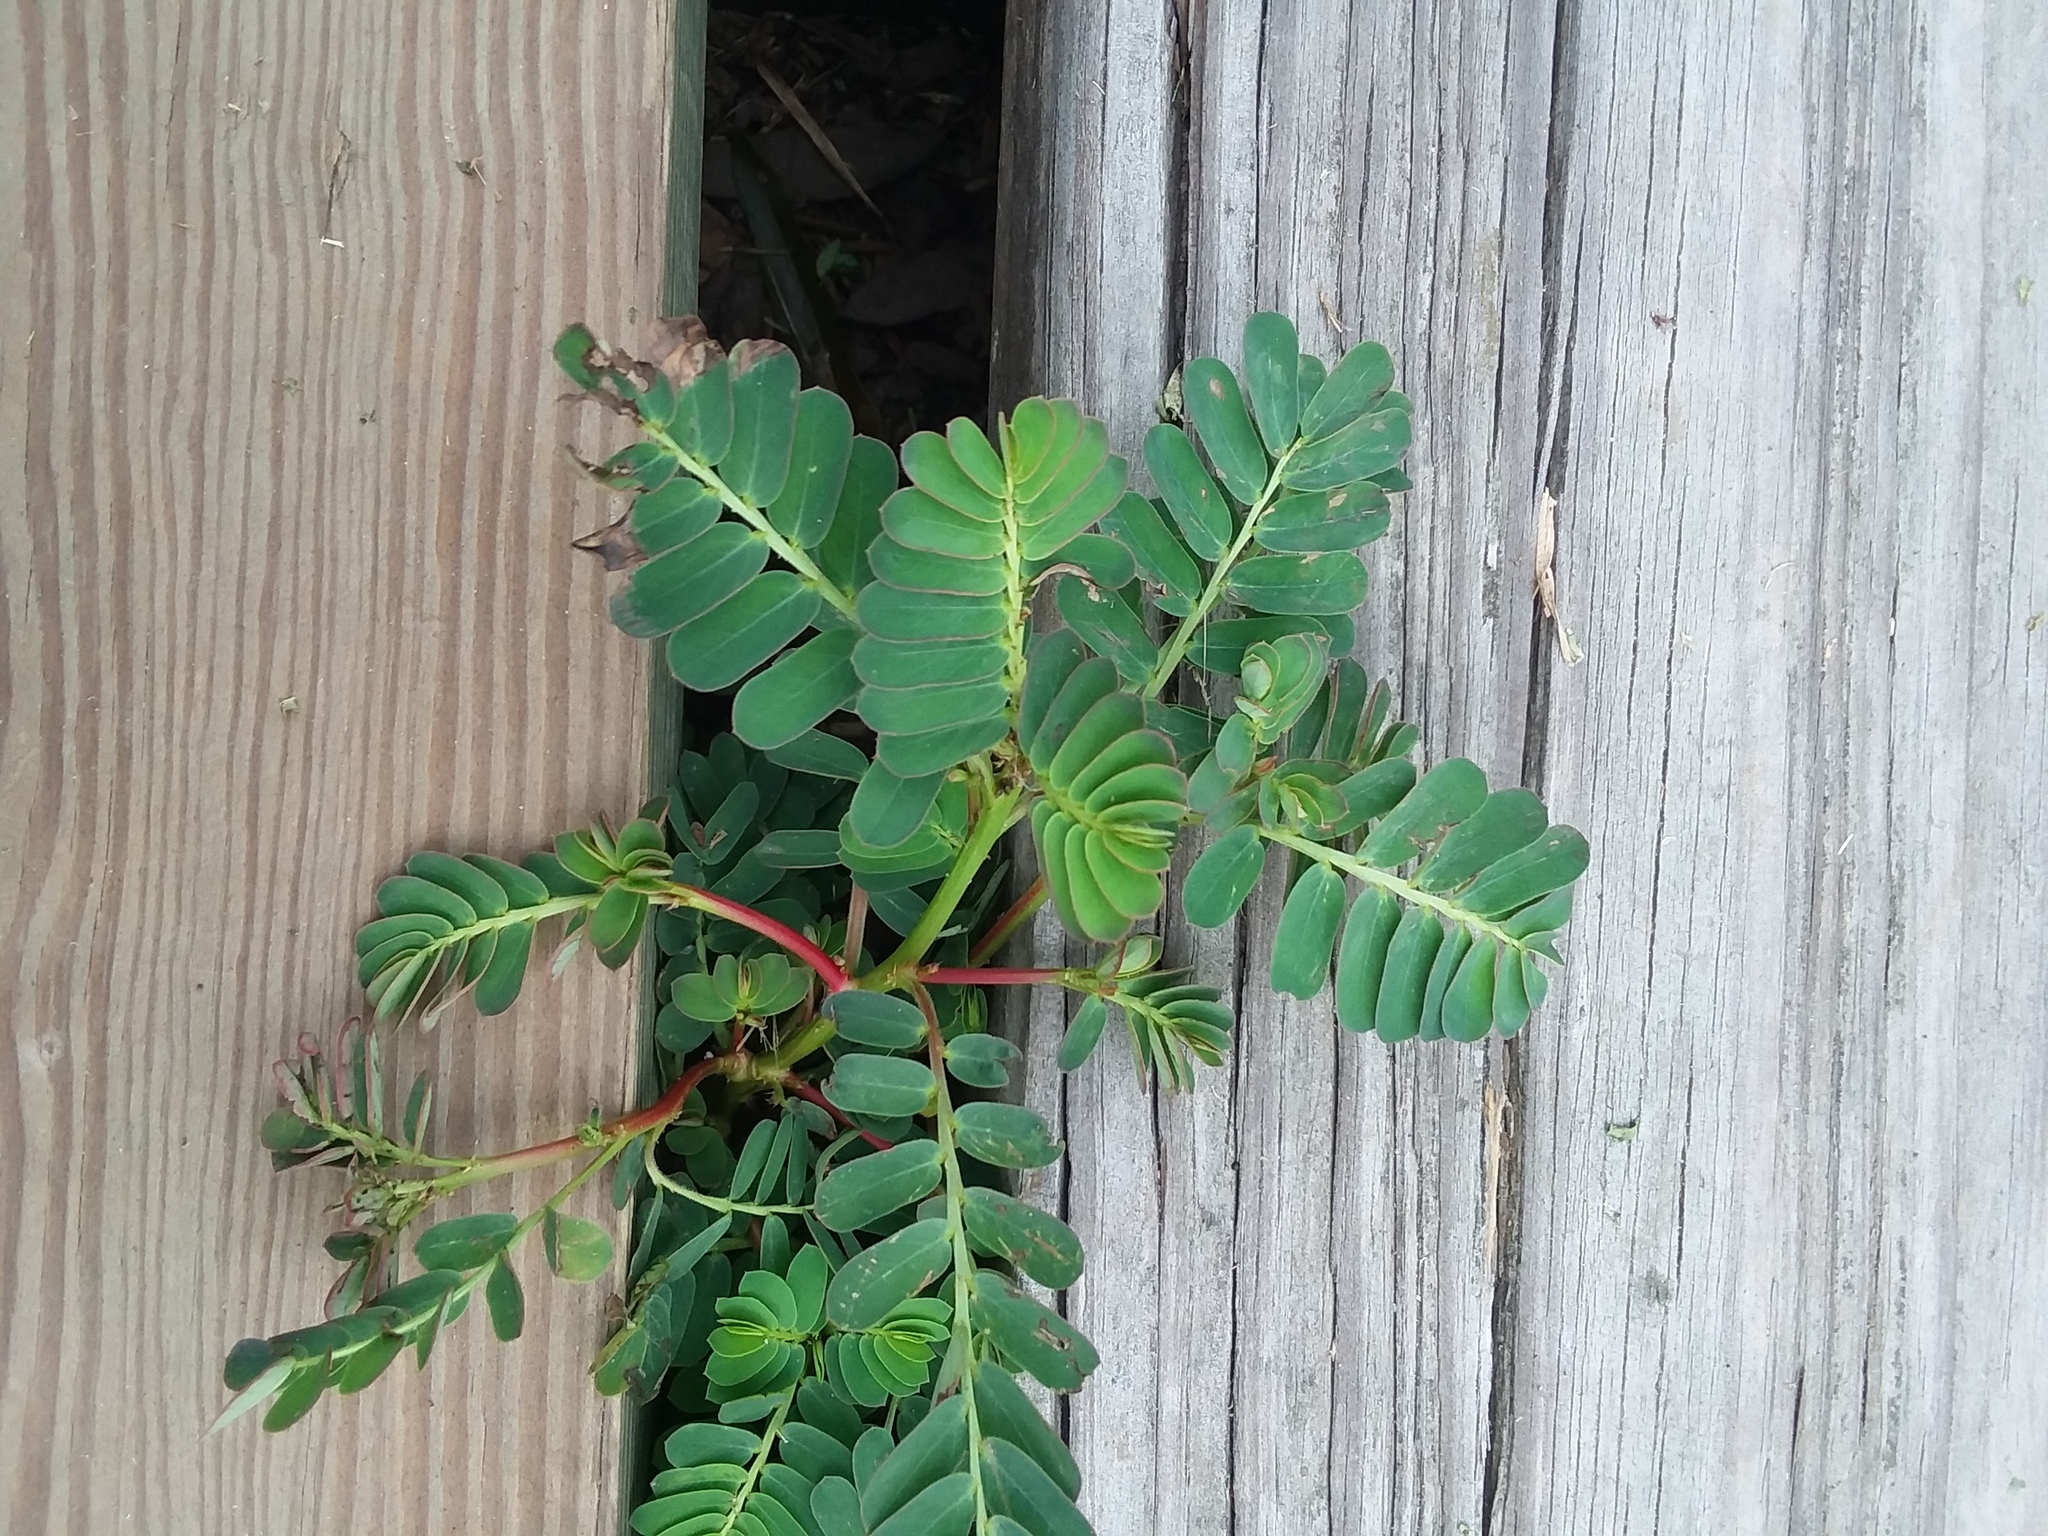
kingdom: Plantae
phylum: Tracheophyta
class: Magnoliopsida
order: Malpighiales
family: Phyllanthaceae
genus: Phyllanthus
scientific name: Phyllanthus urinaria
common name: Chamber bitter
